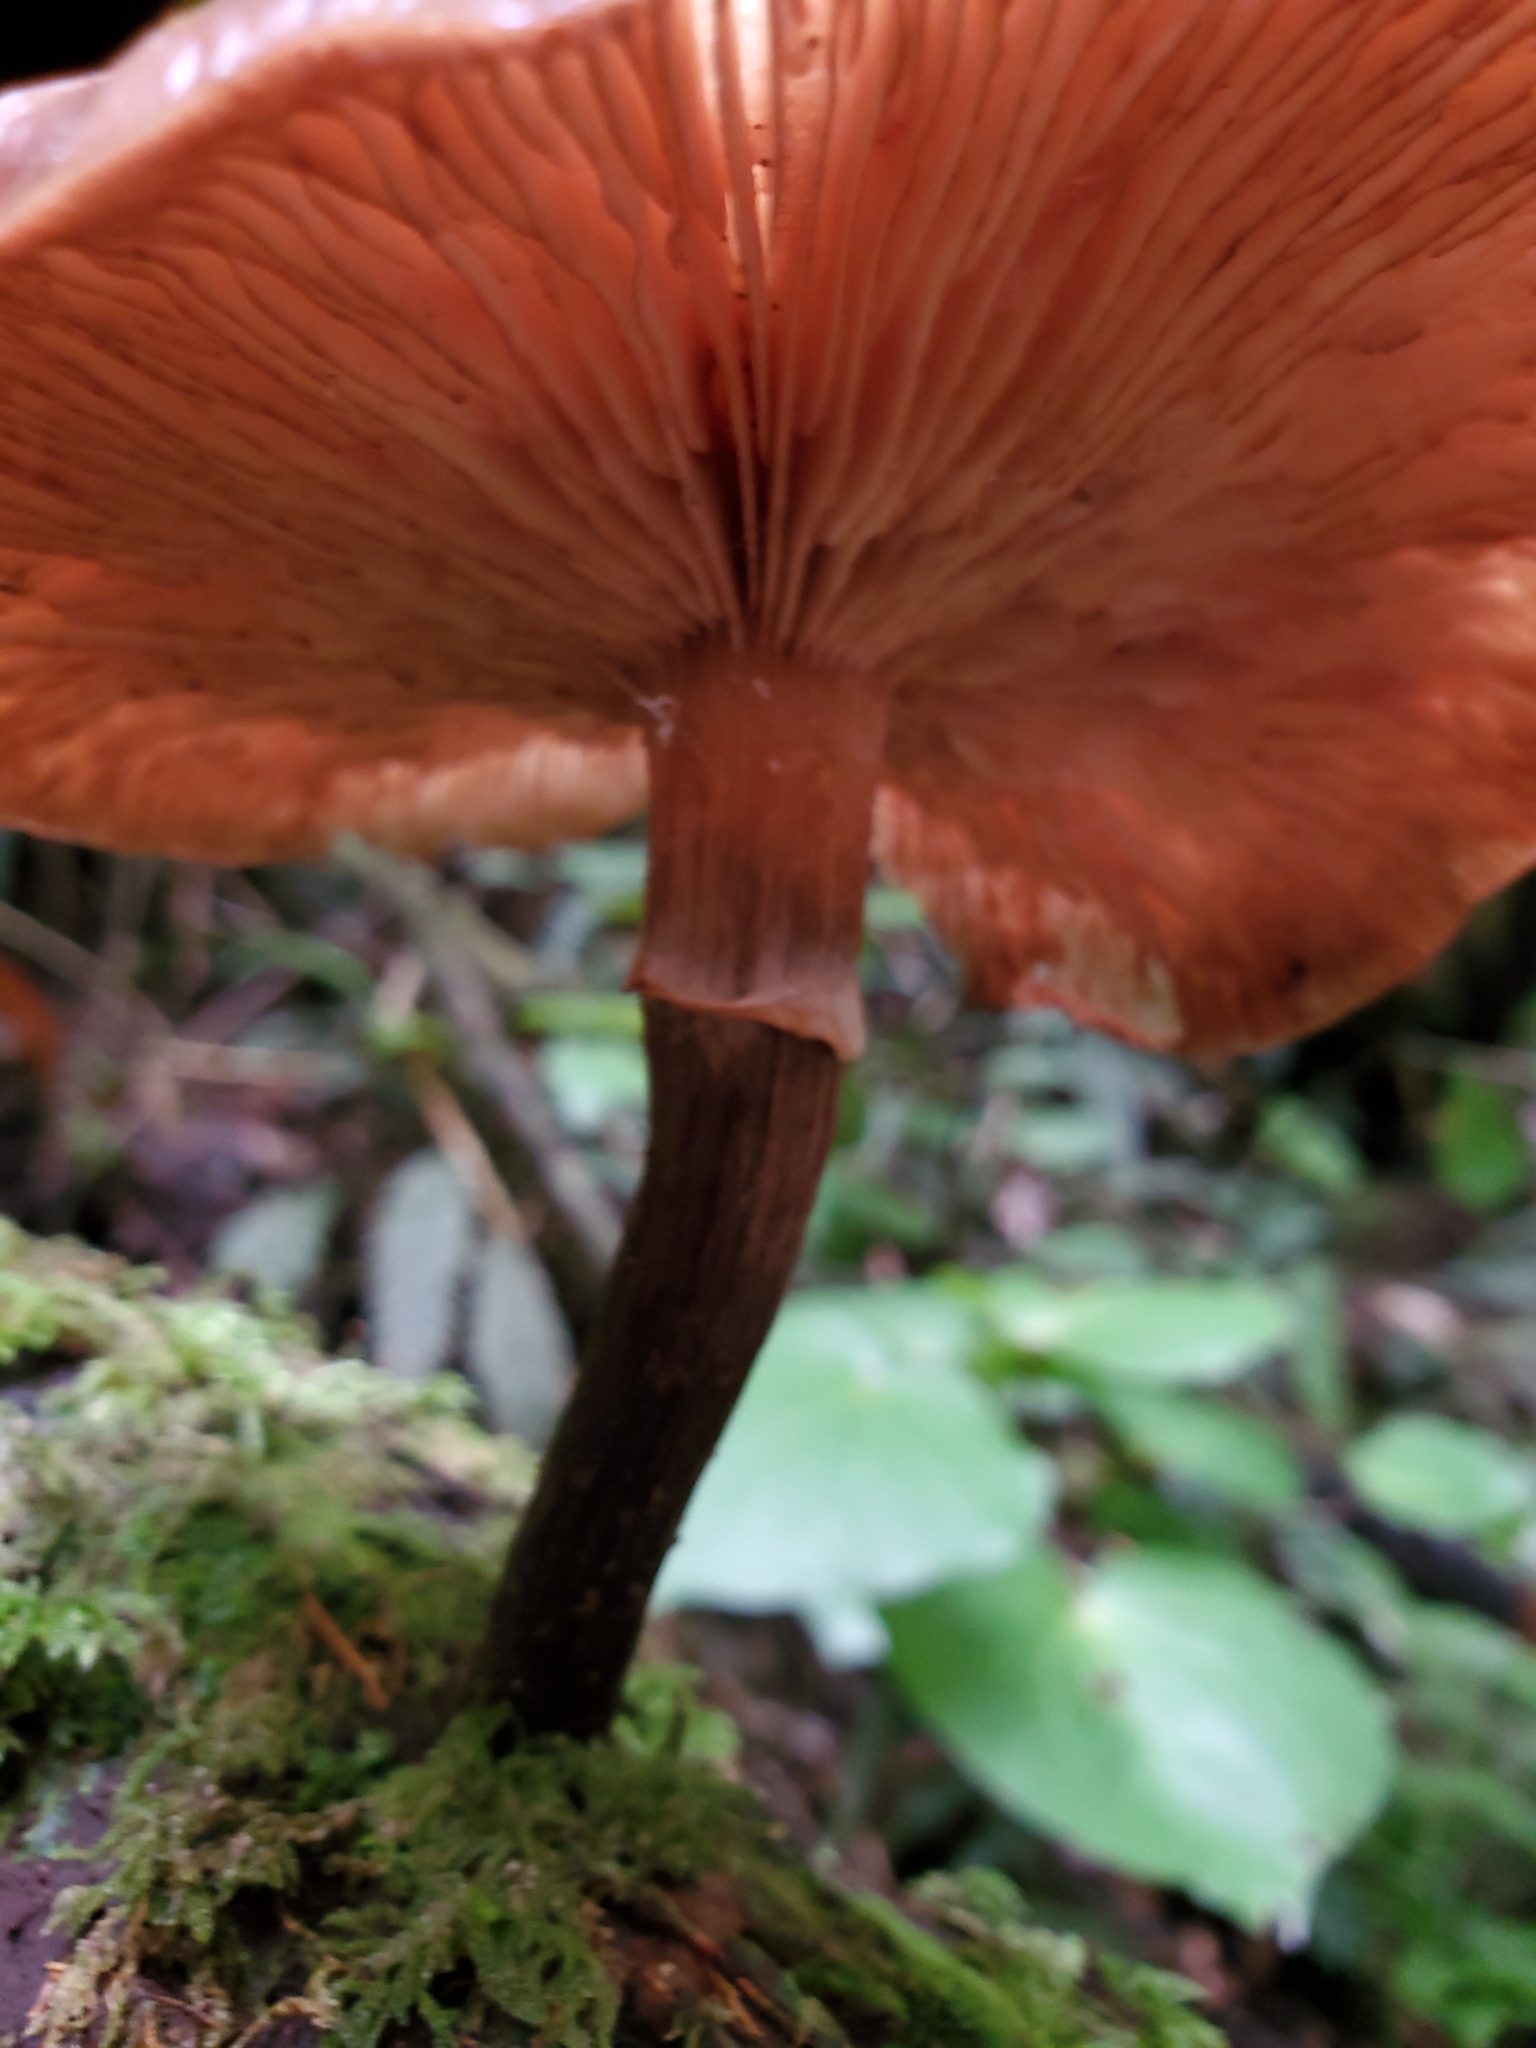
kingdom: Fungi
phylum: Basidiomycota
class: Agaricomycetes
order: Agaricales
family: Physalacriaceae
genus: Armillaria
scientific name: Armillaria novae-zelandiae
